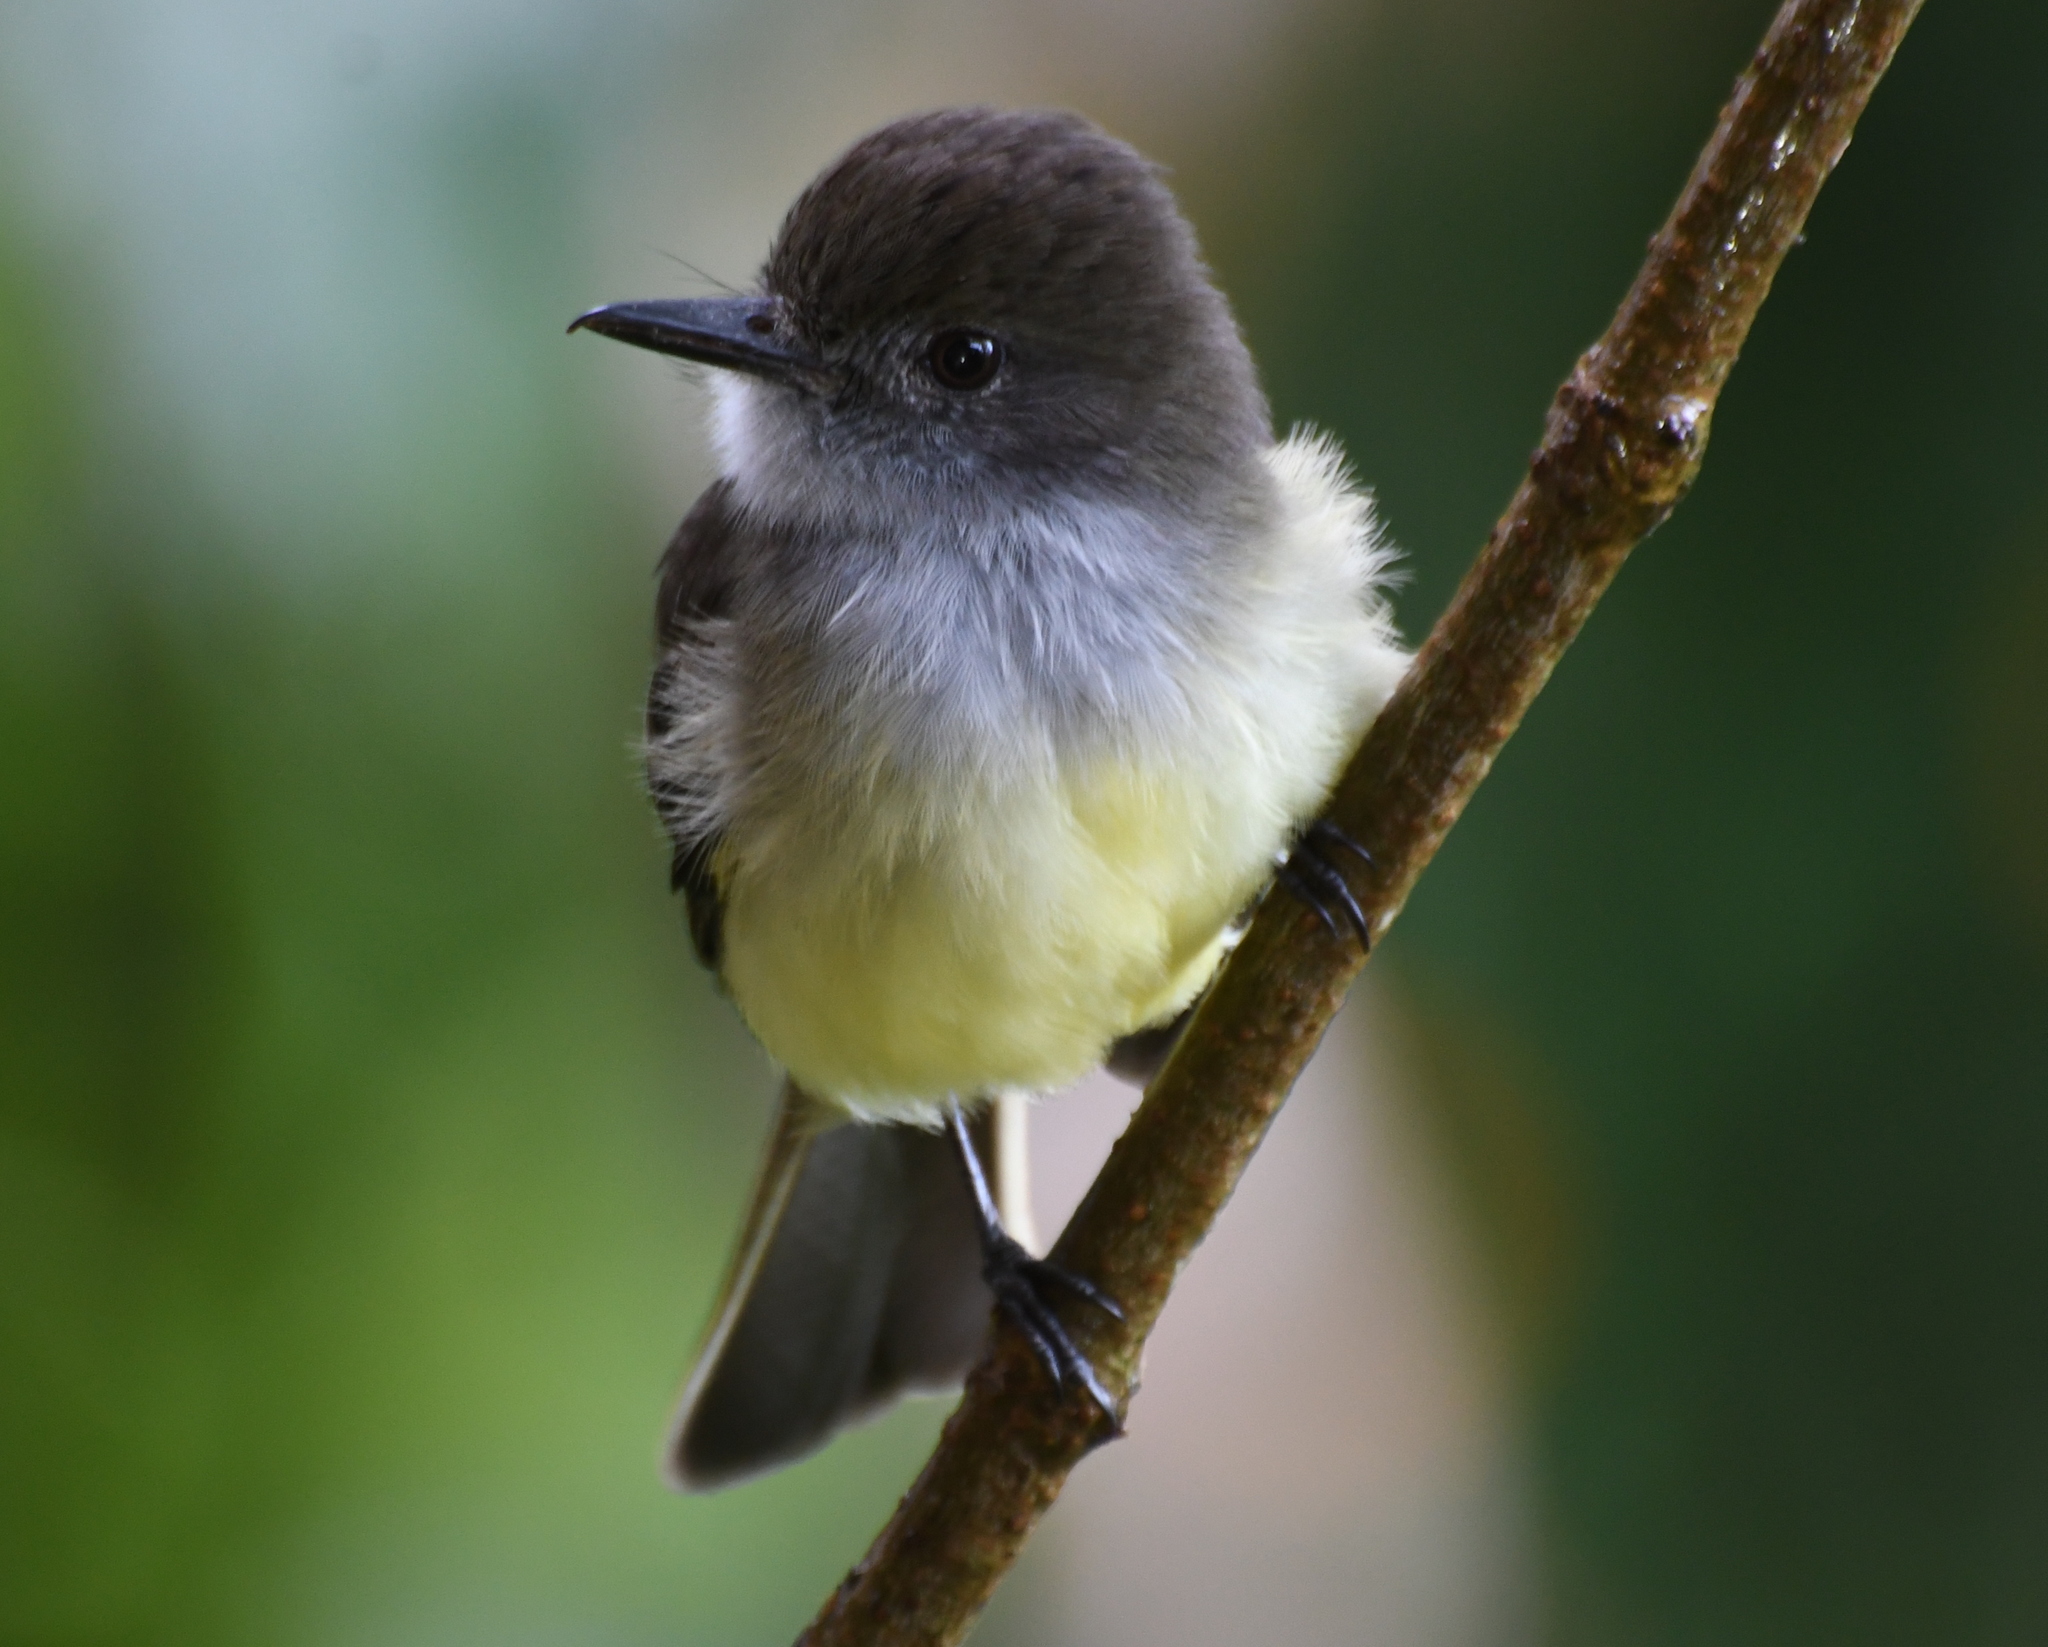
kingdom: Animalia
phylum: Chordata
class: Aves
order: Passeriformes
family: Tyrannidae
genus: Myiarchus
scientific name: Myiarchus cephalotes
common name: Pale-edged flycatcher
